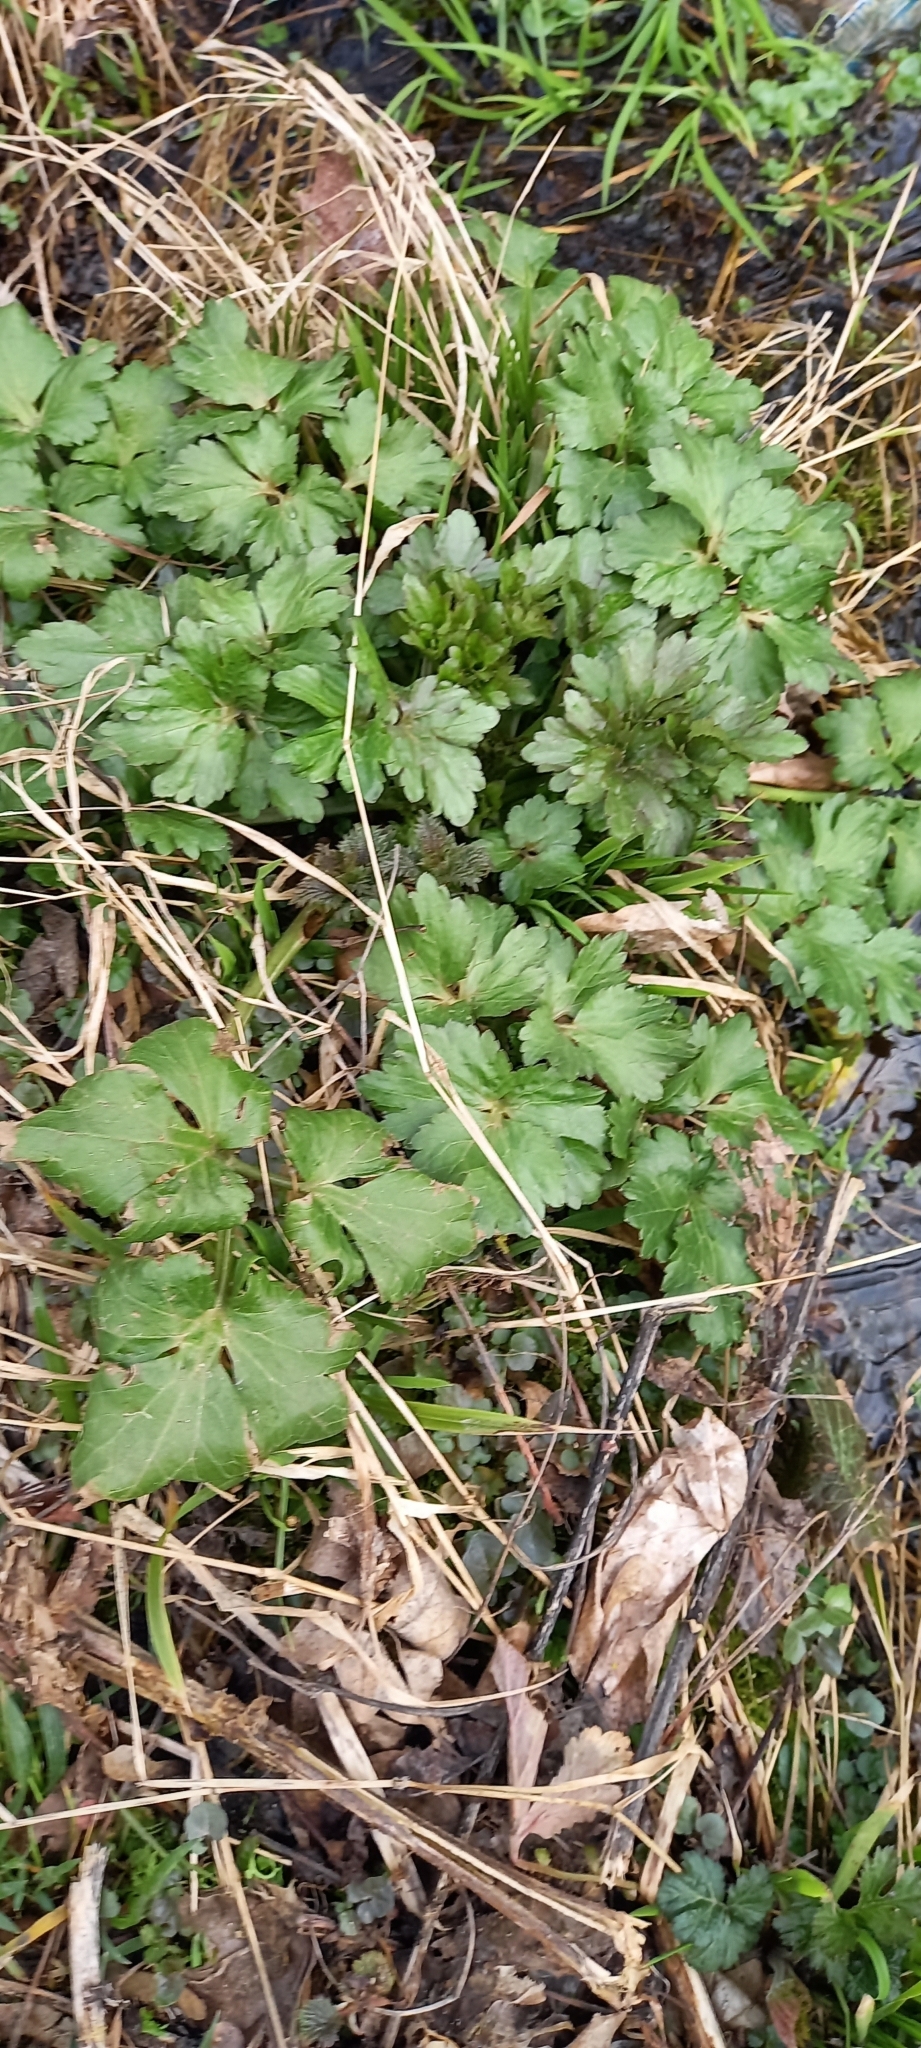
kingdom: Plantae
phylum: Tracheophyta
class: Magnoliopsida
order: Ranunculales
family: Ranunculaceae
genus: Ranunculus
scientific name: Ranunculus repens
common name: Creeping buttercup
